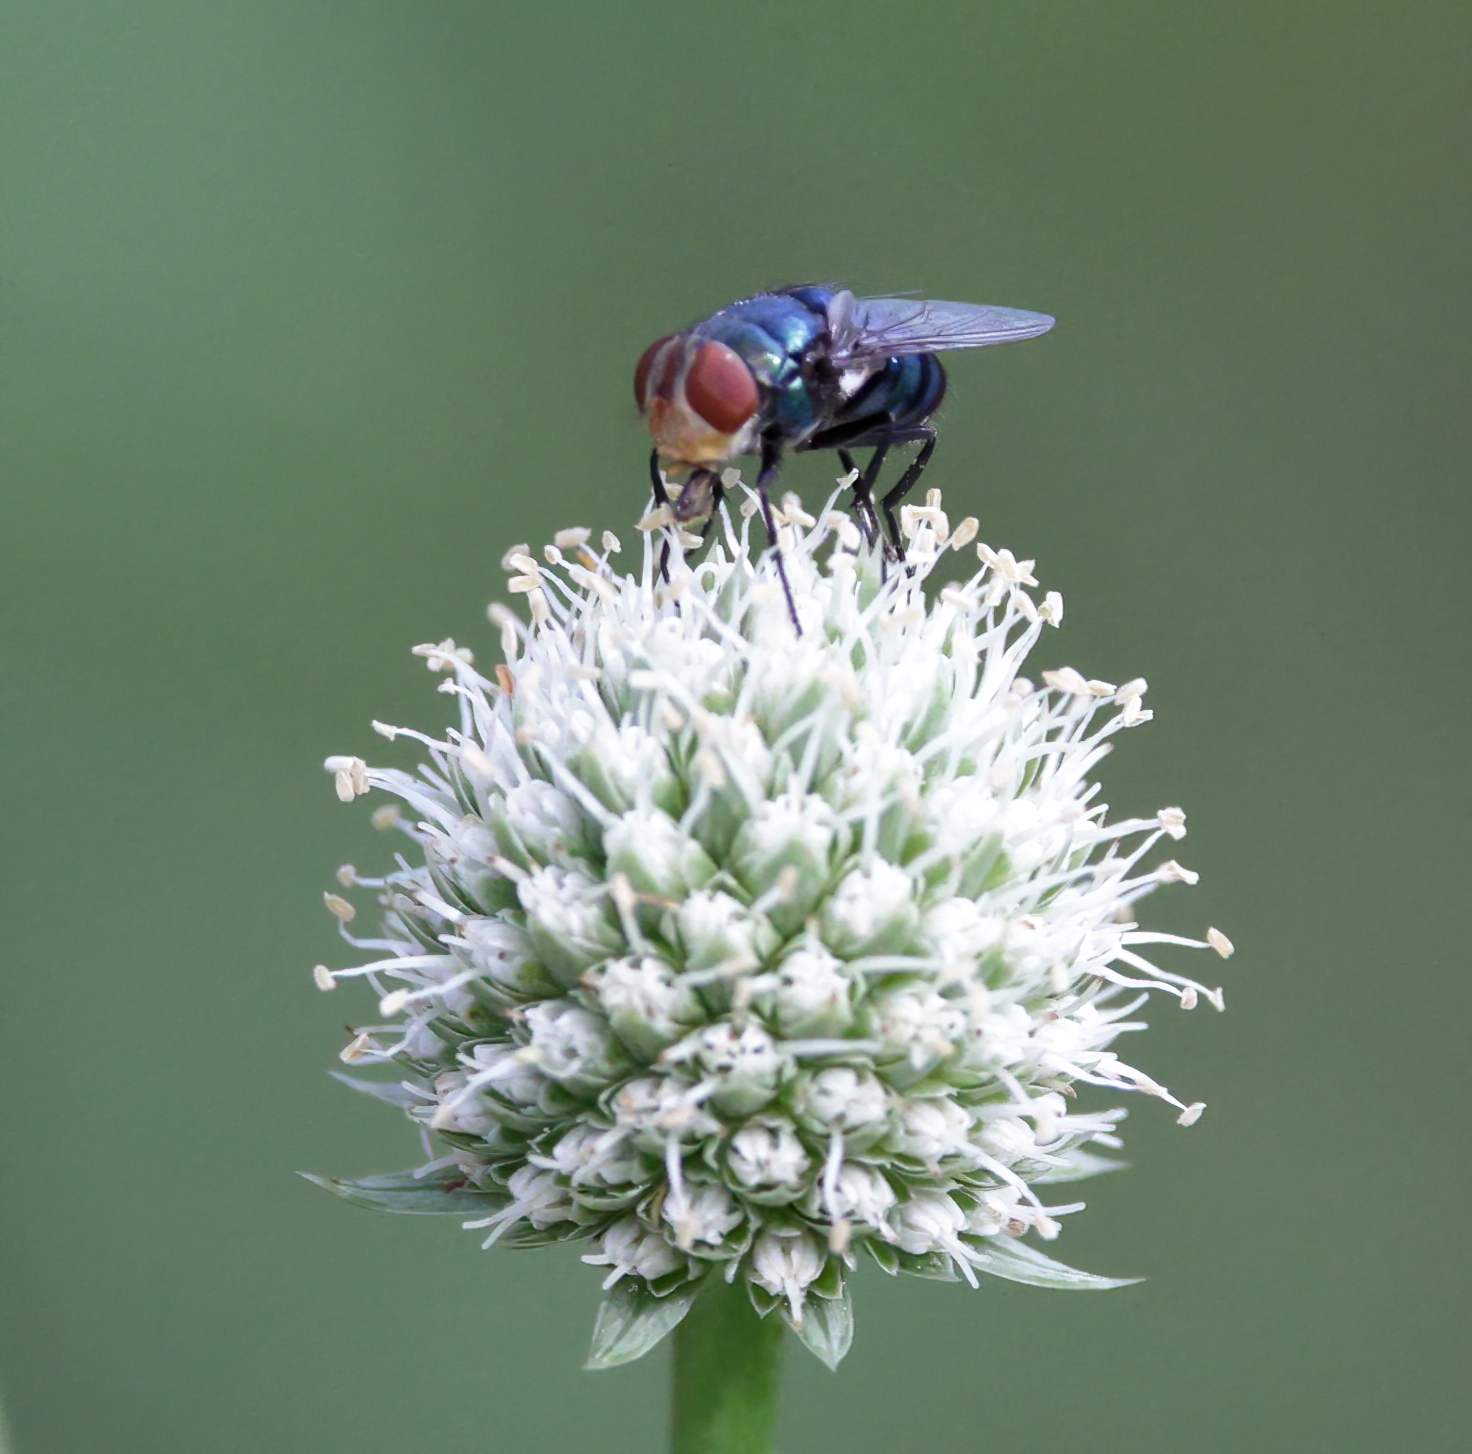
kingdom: Animalia
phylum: Arthropoda
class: Insecta
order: Diptera
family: Calliphoridae
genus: Chrysomya
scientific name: Chrysomya megacephala
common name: Blow fly
